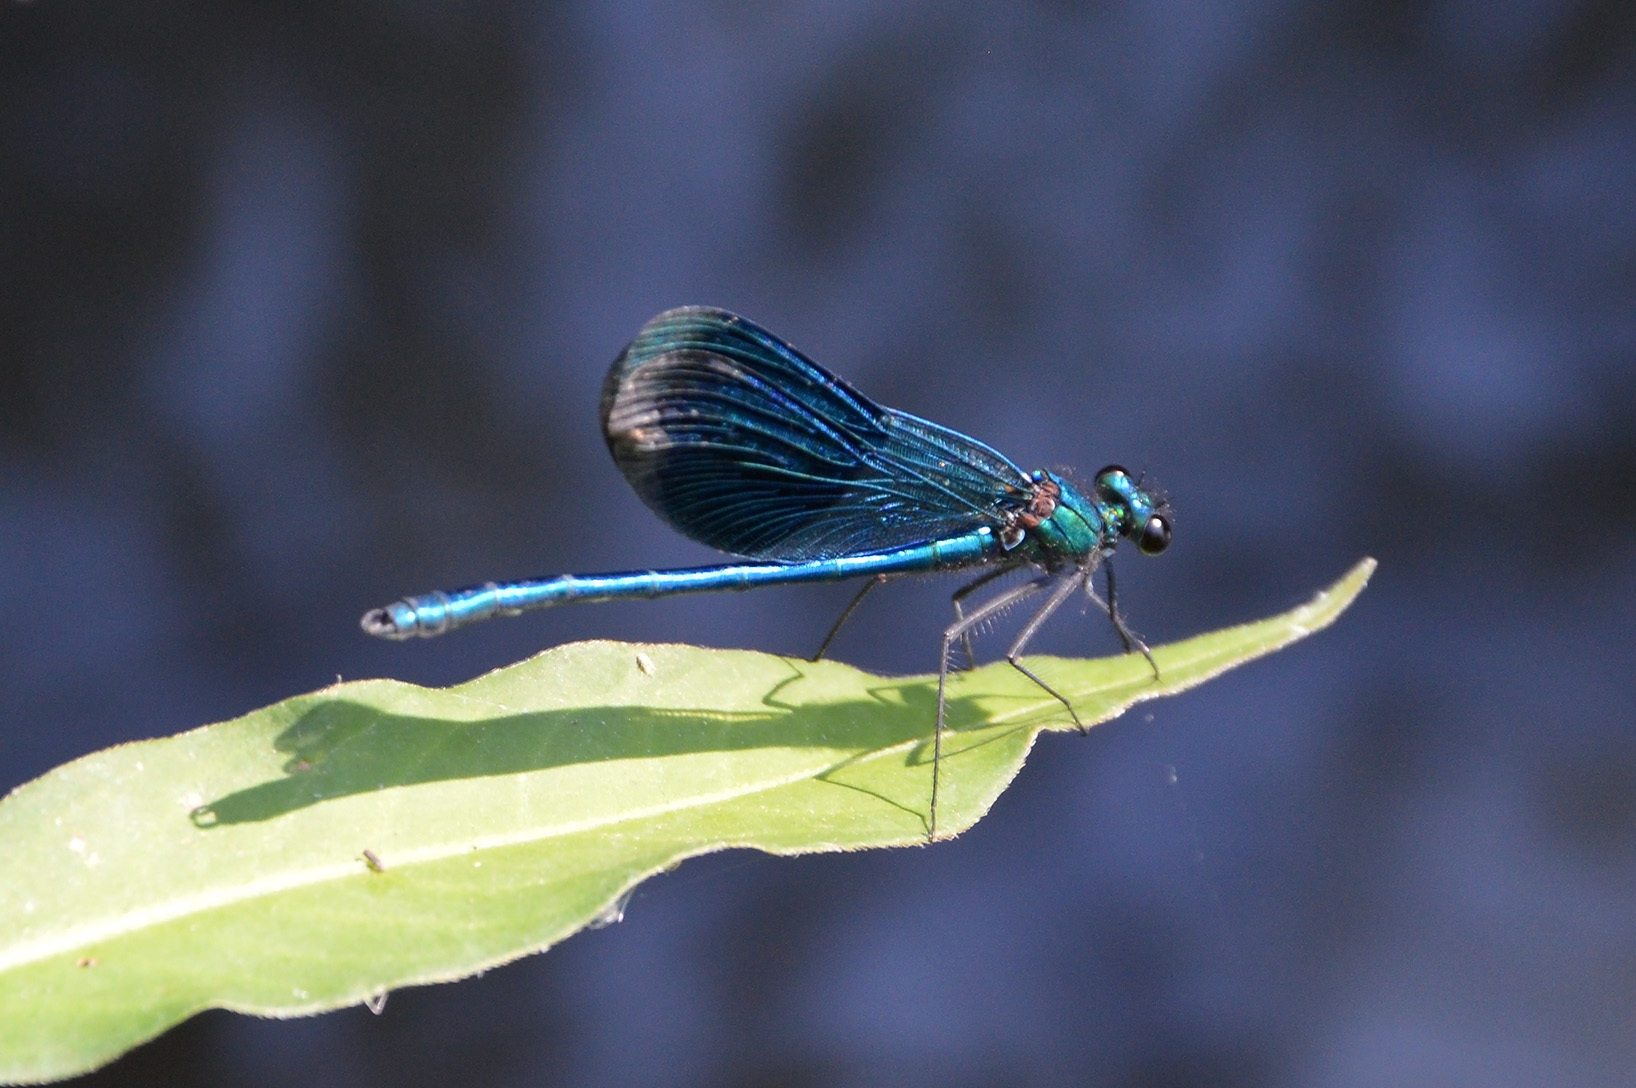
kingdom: Animalia
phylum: Arthropoda
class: Insecta
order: Odonata
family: Calopterygidae
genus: Calopteryx
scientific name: Calopteryx splendens
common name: Banded demoiselle
